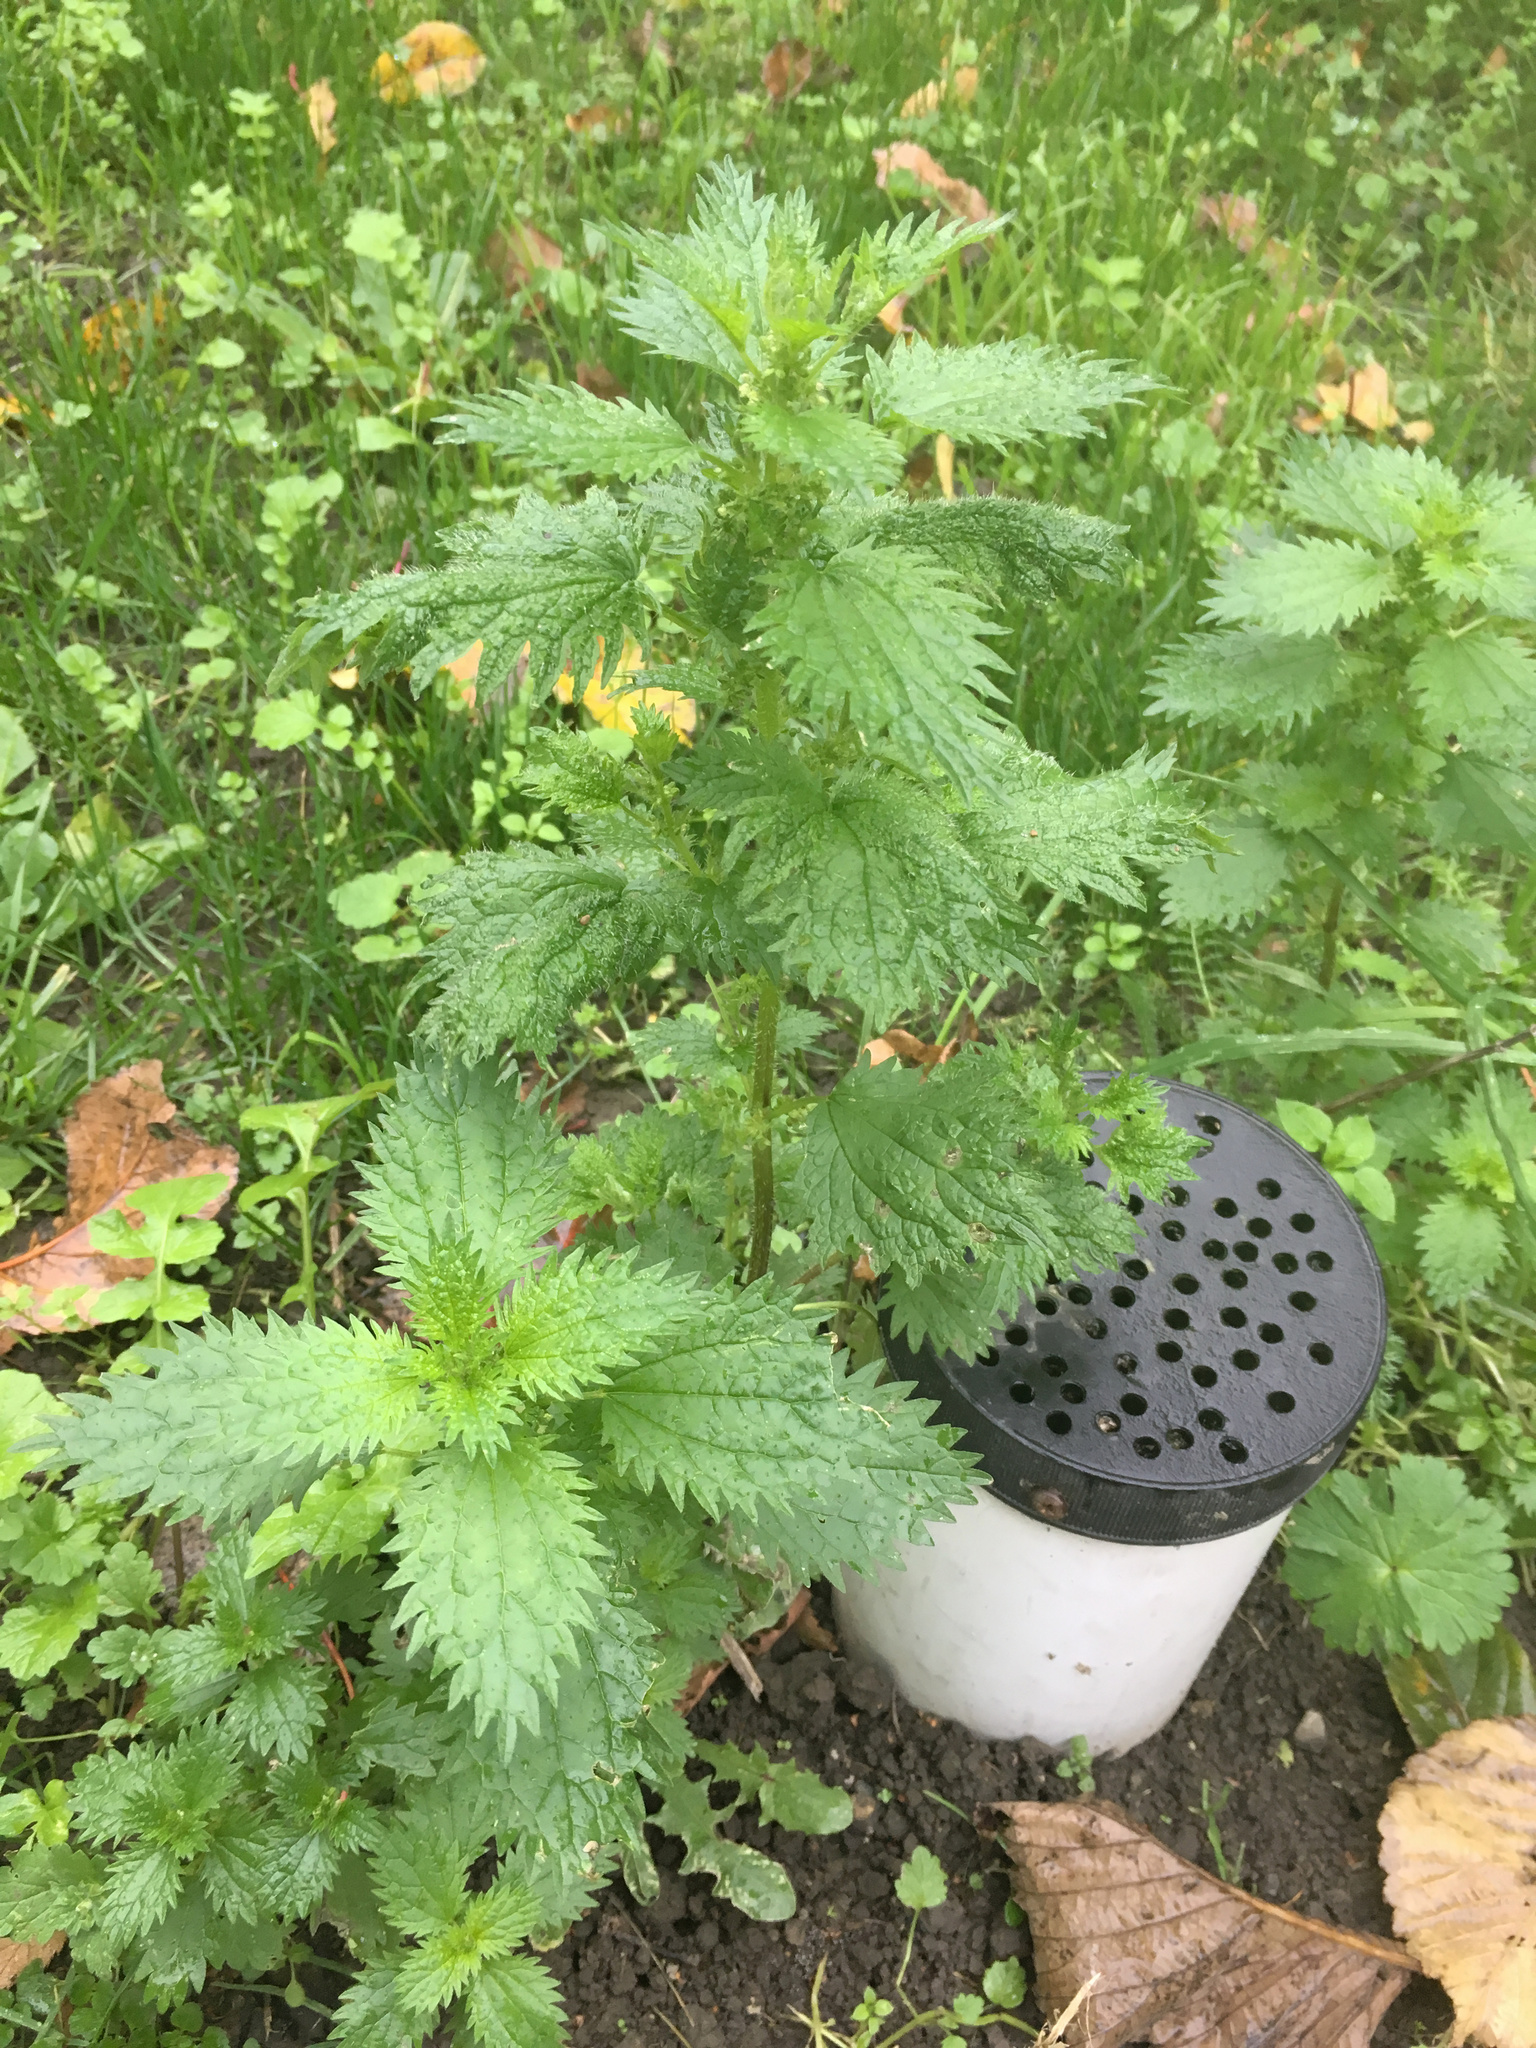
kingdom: Plantae
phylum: Tracheophyta
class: Magnoliopsida
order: Rosales
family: Urticaceae
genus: Urtica
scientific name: Urtica urens
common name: Dwarf nettle
